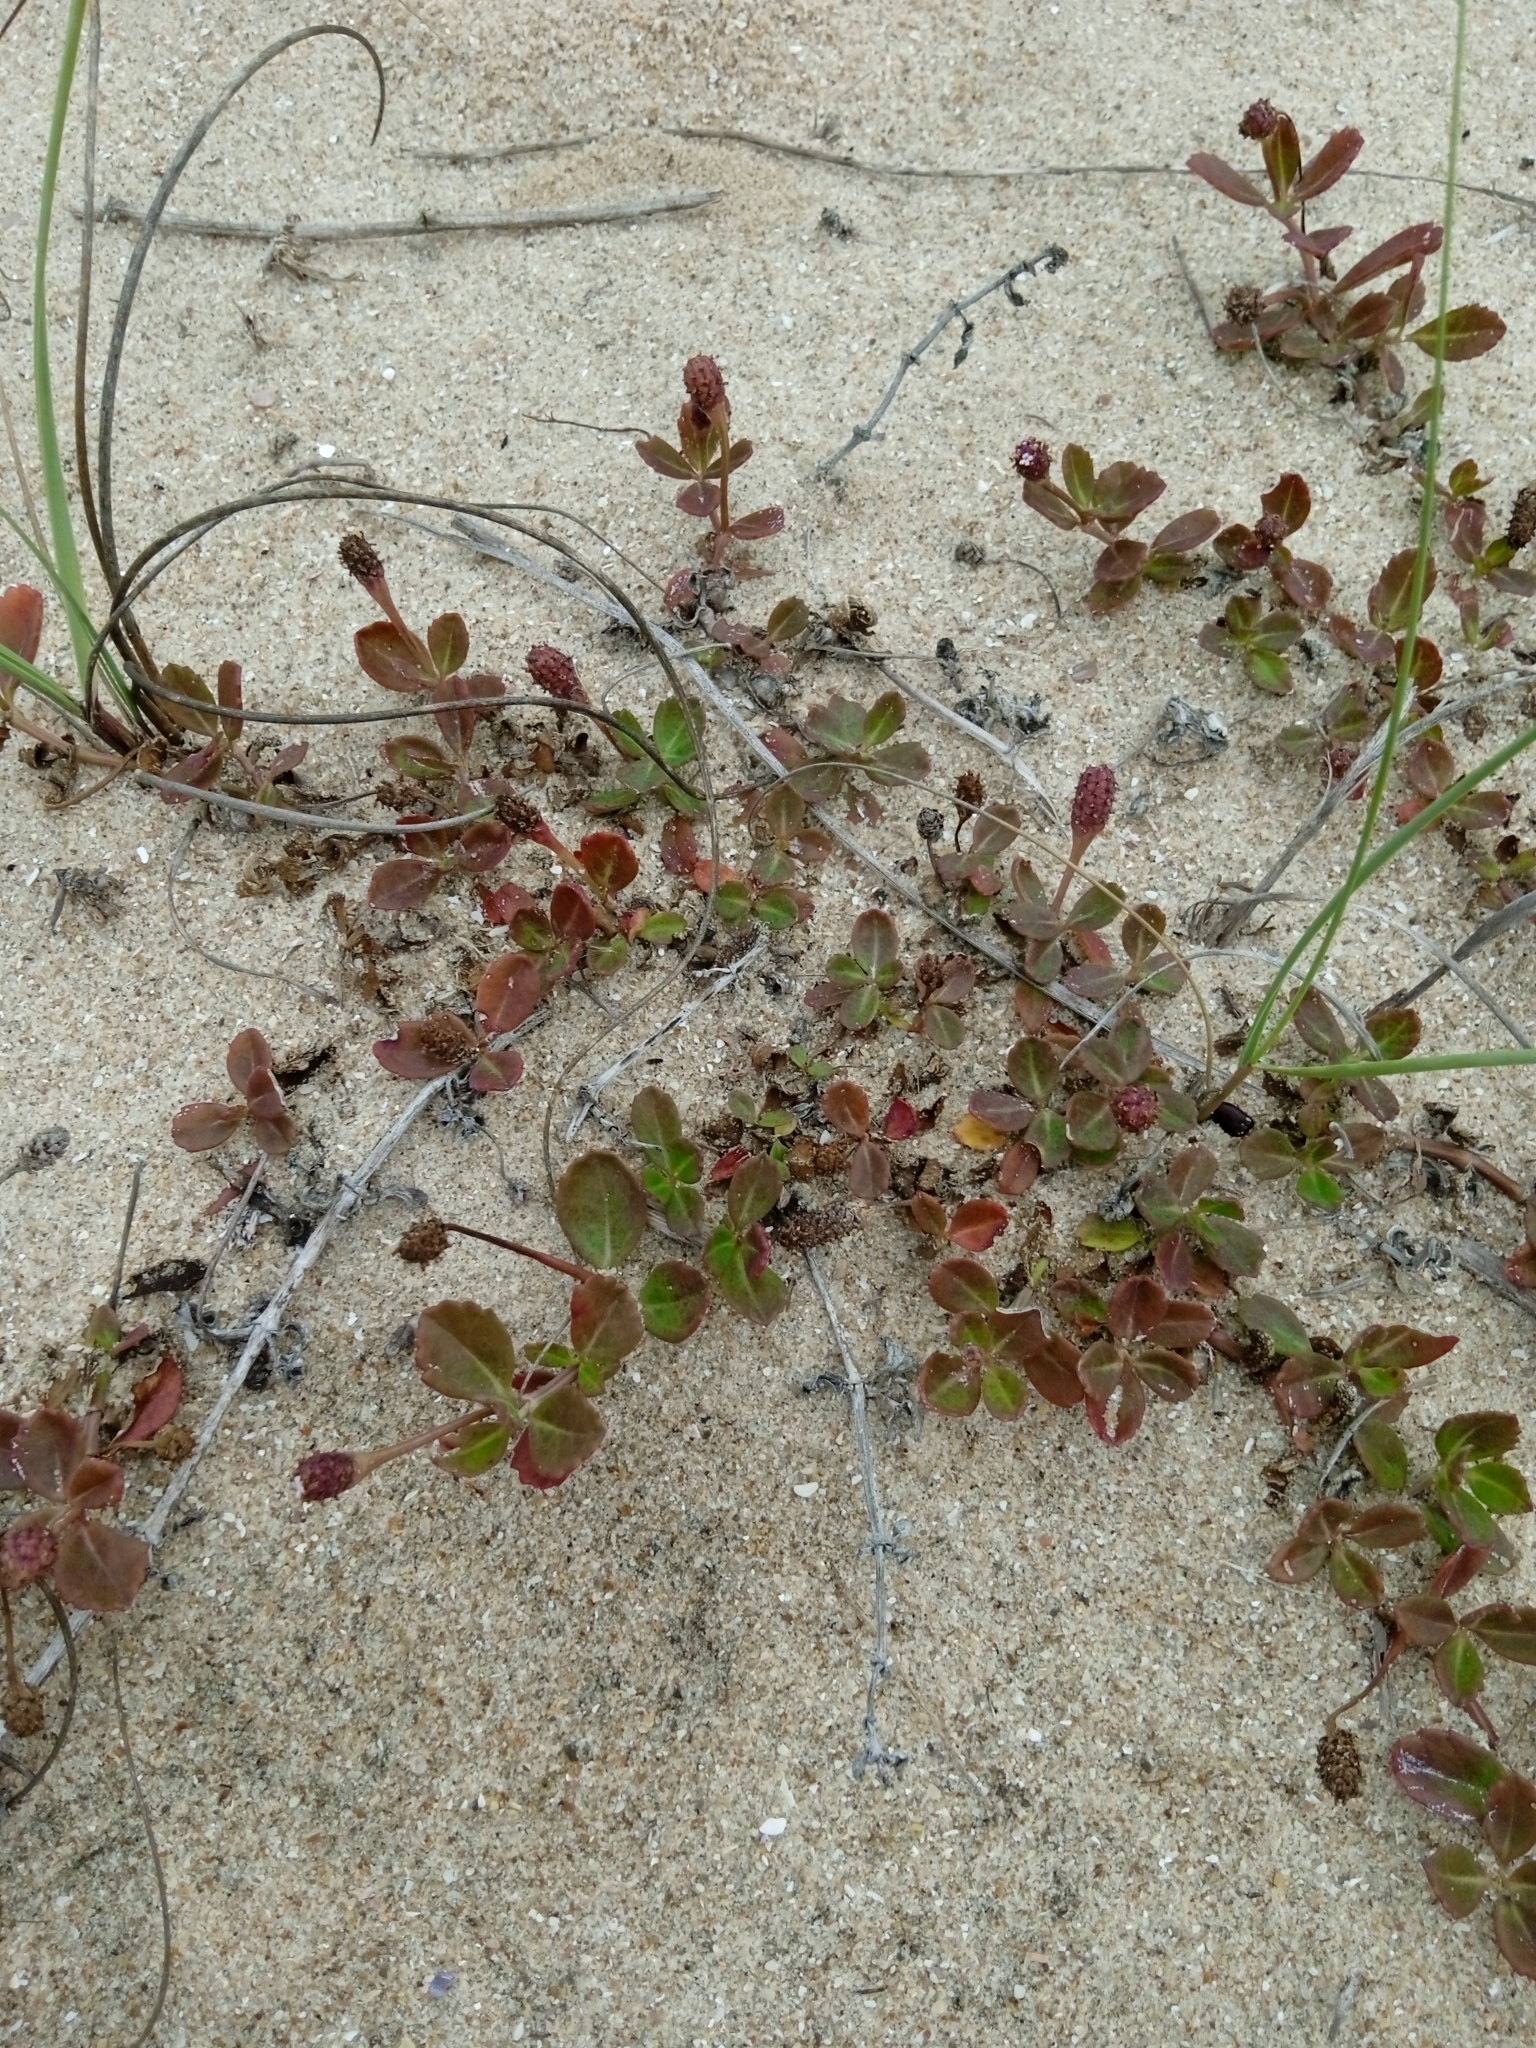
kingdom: Plantae
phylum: Tracheophyta
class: Magnoliopsida
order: Lamiales
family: Verbenaceae
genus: Phyla
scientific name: Phyla nodiflora
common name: Frogfruit
